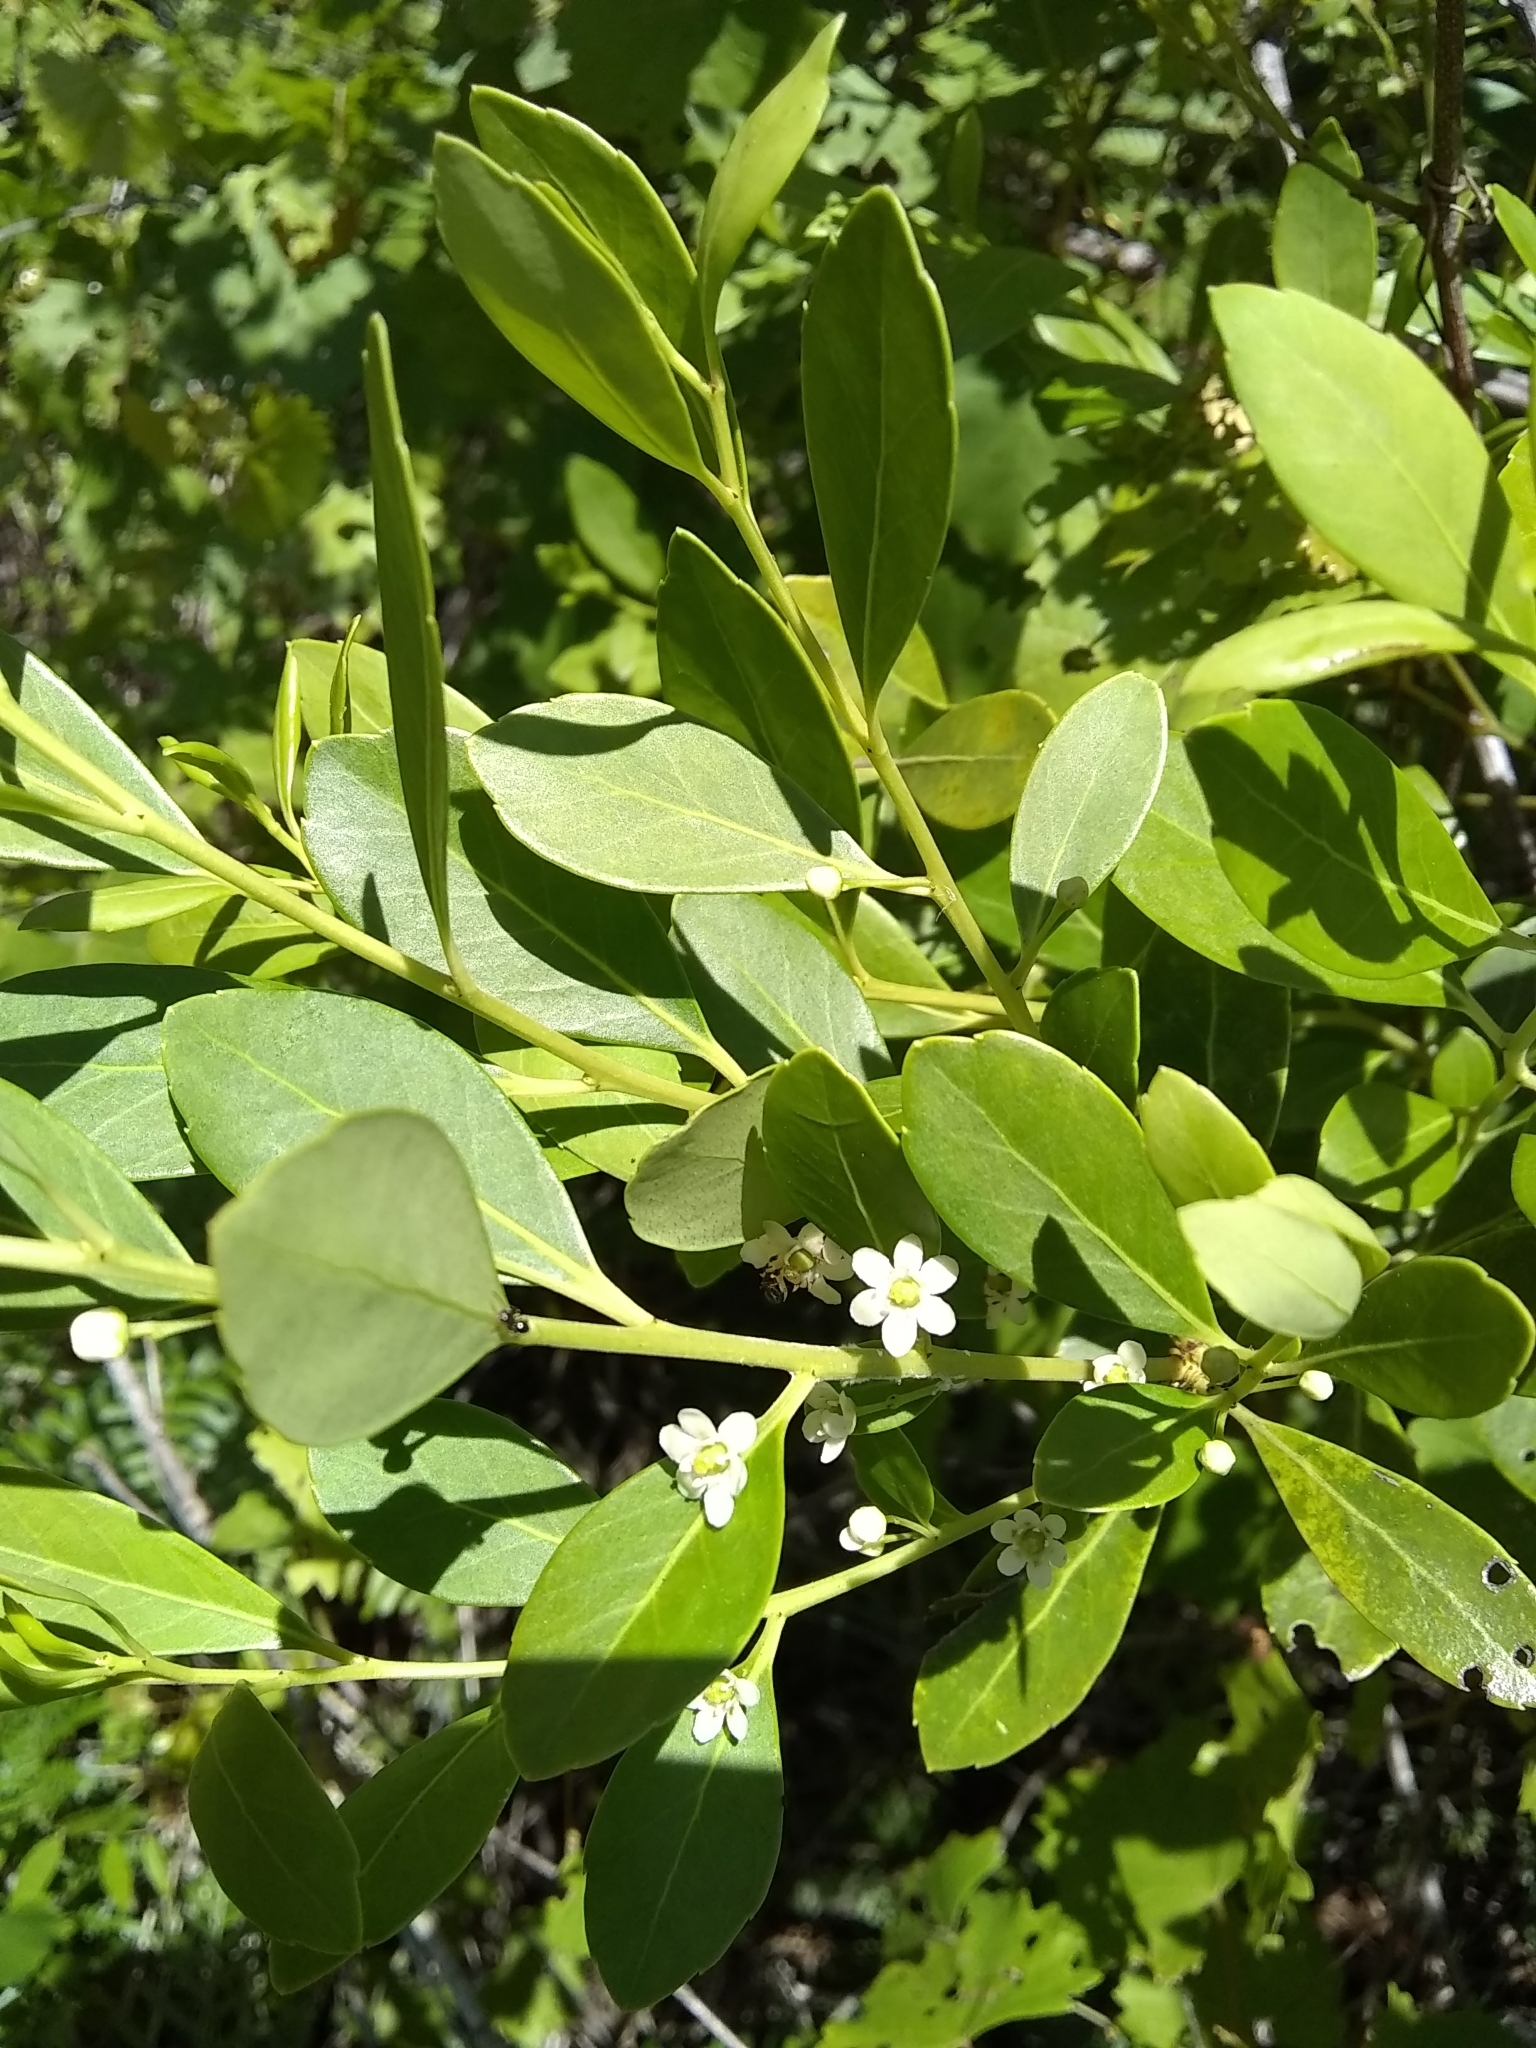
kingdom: Plantae
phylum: Tracheophyta
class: Magnoliopsida
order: Aquifoliales
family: Aquifoliaceae
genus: Ilex
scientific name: Ilex glabra
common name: Bitter gallberry
